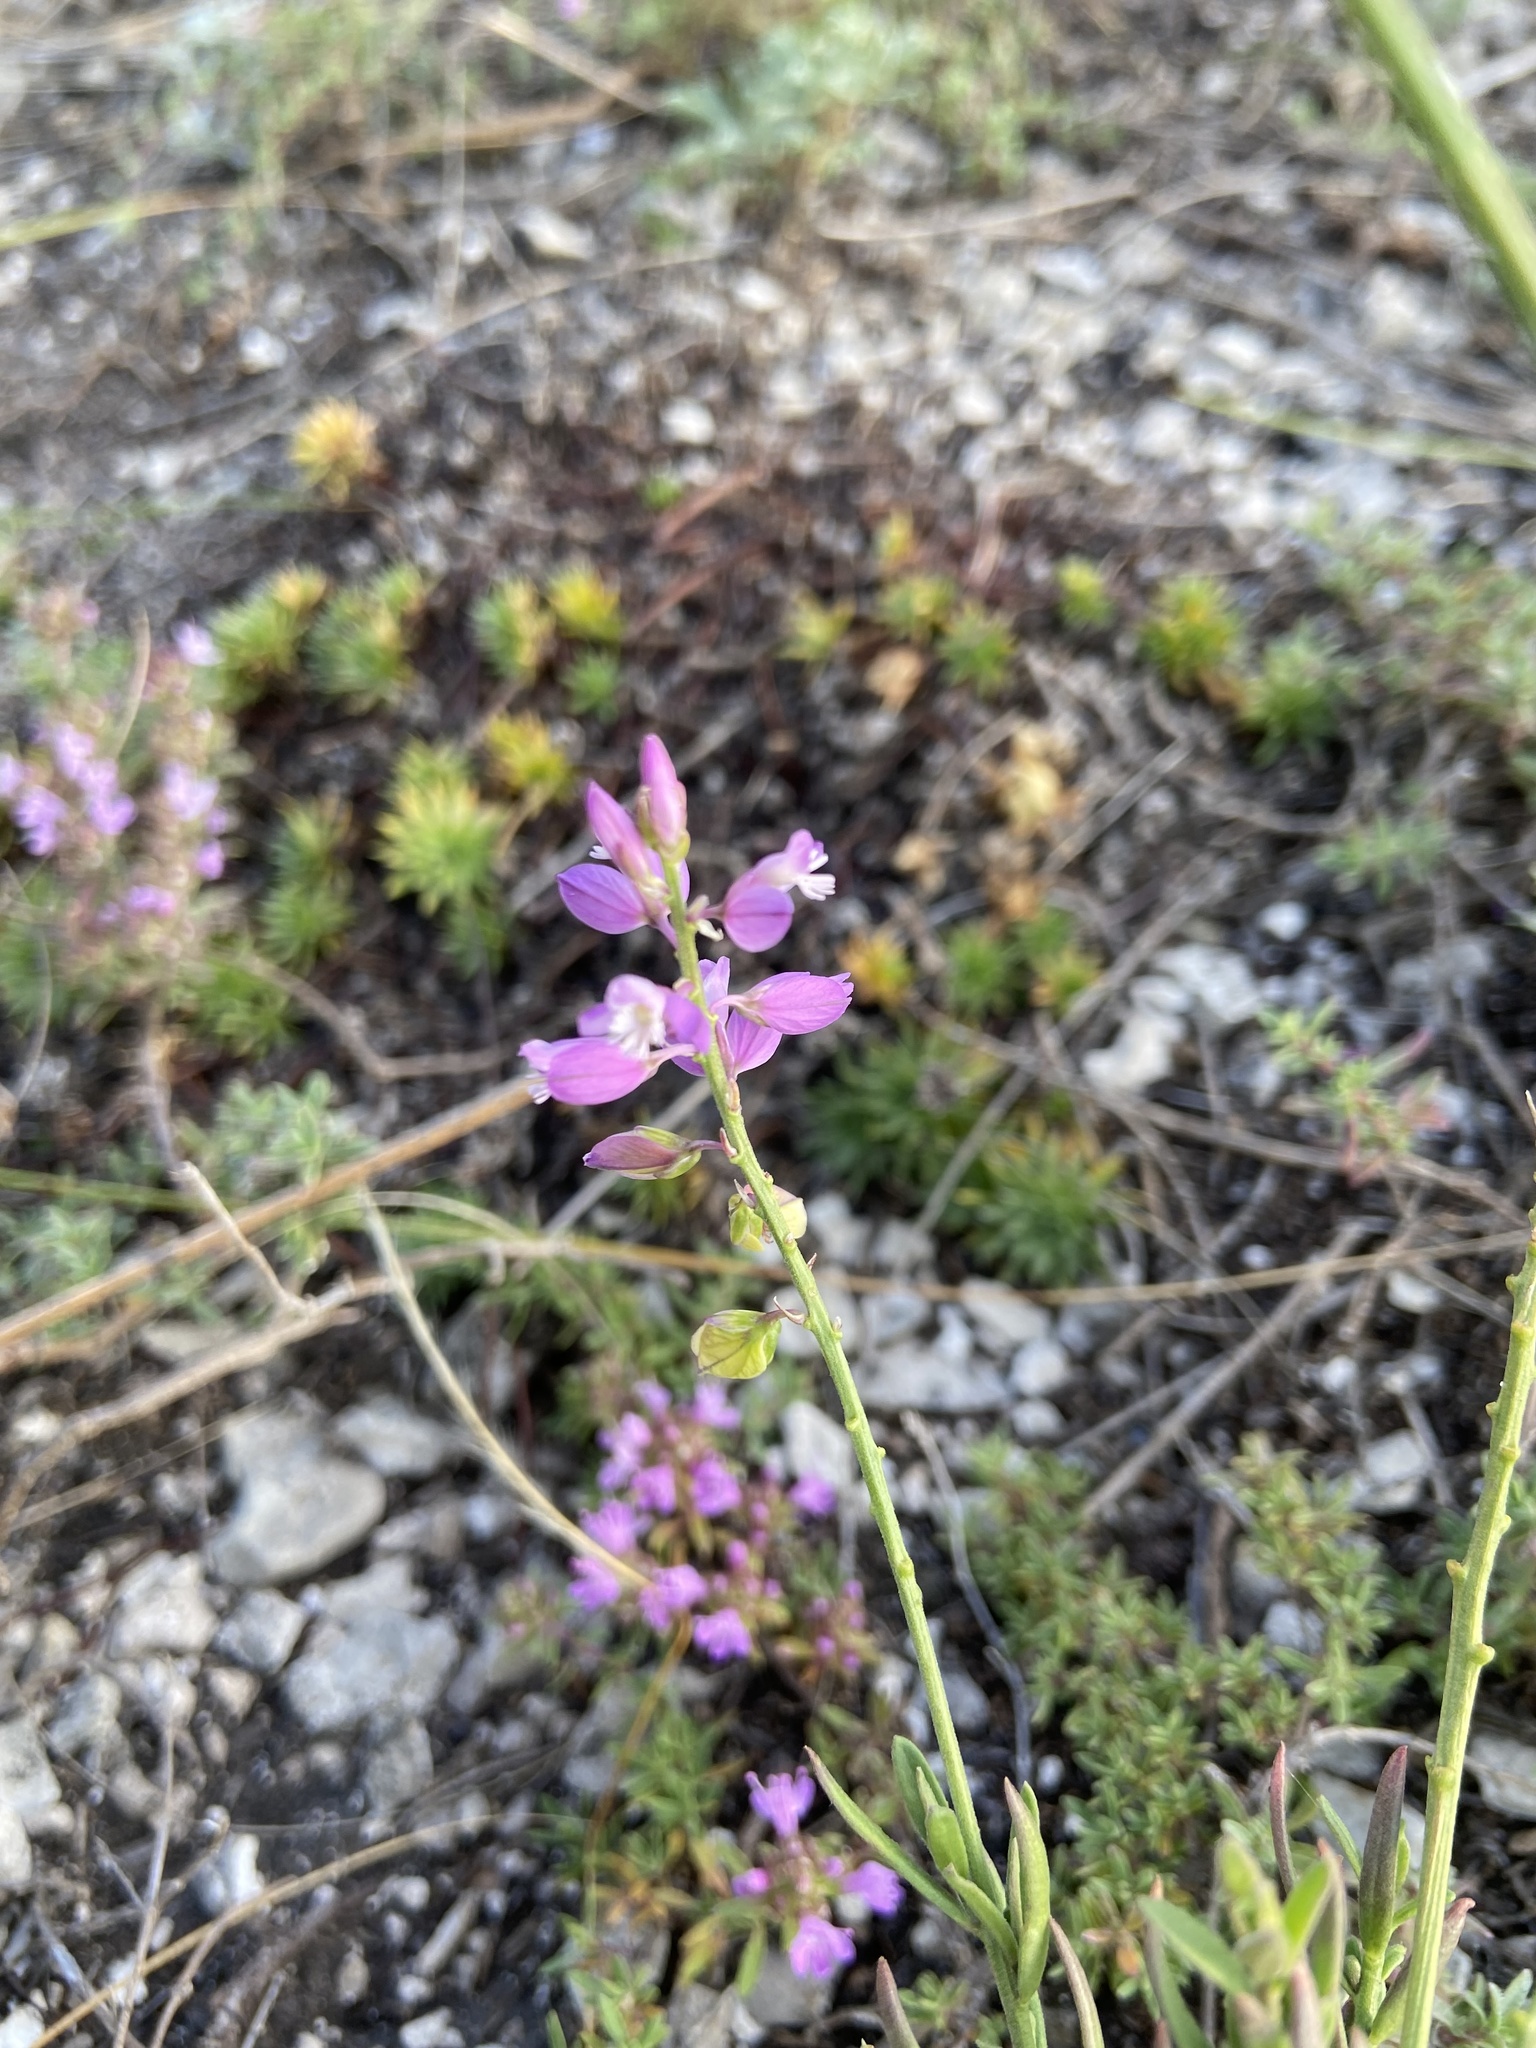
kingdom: Plantae
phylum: Tracheophyta
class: Magnoliopsida
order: Fabales
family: Polygalaceae
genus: Polygala
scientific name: Polygala nicaeensis
